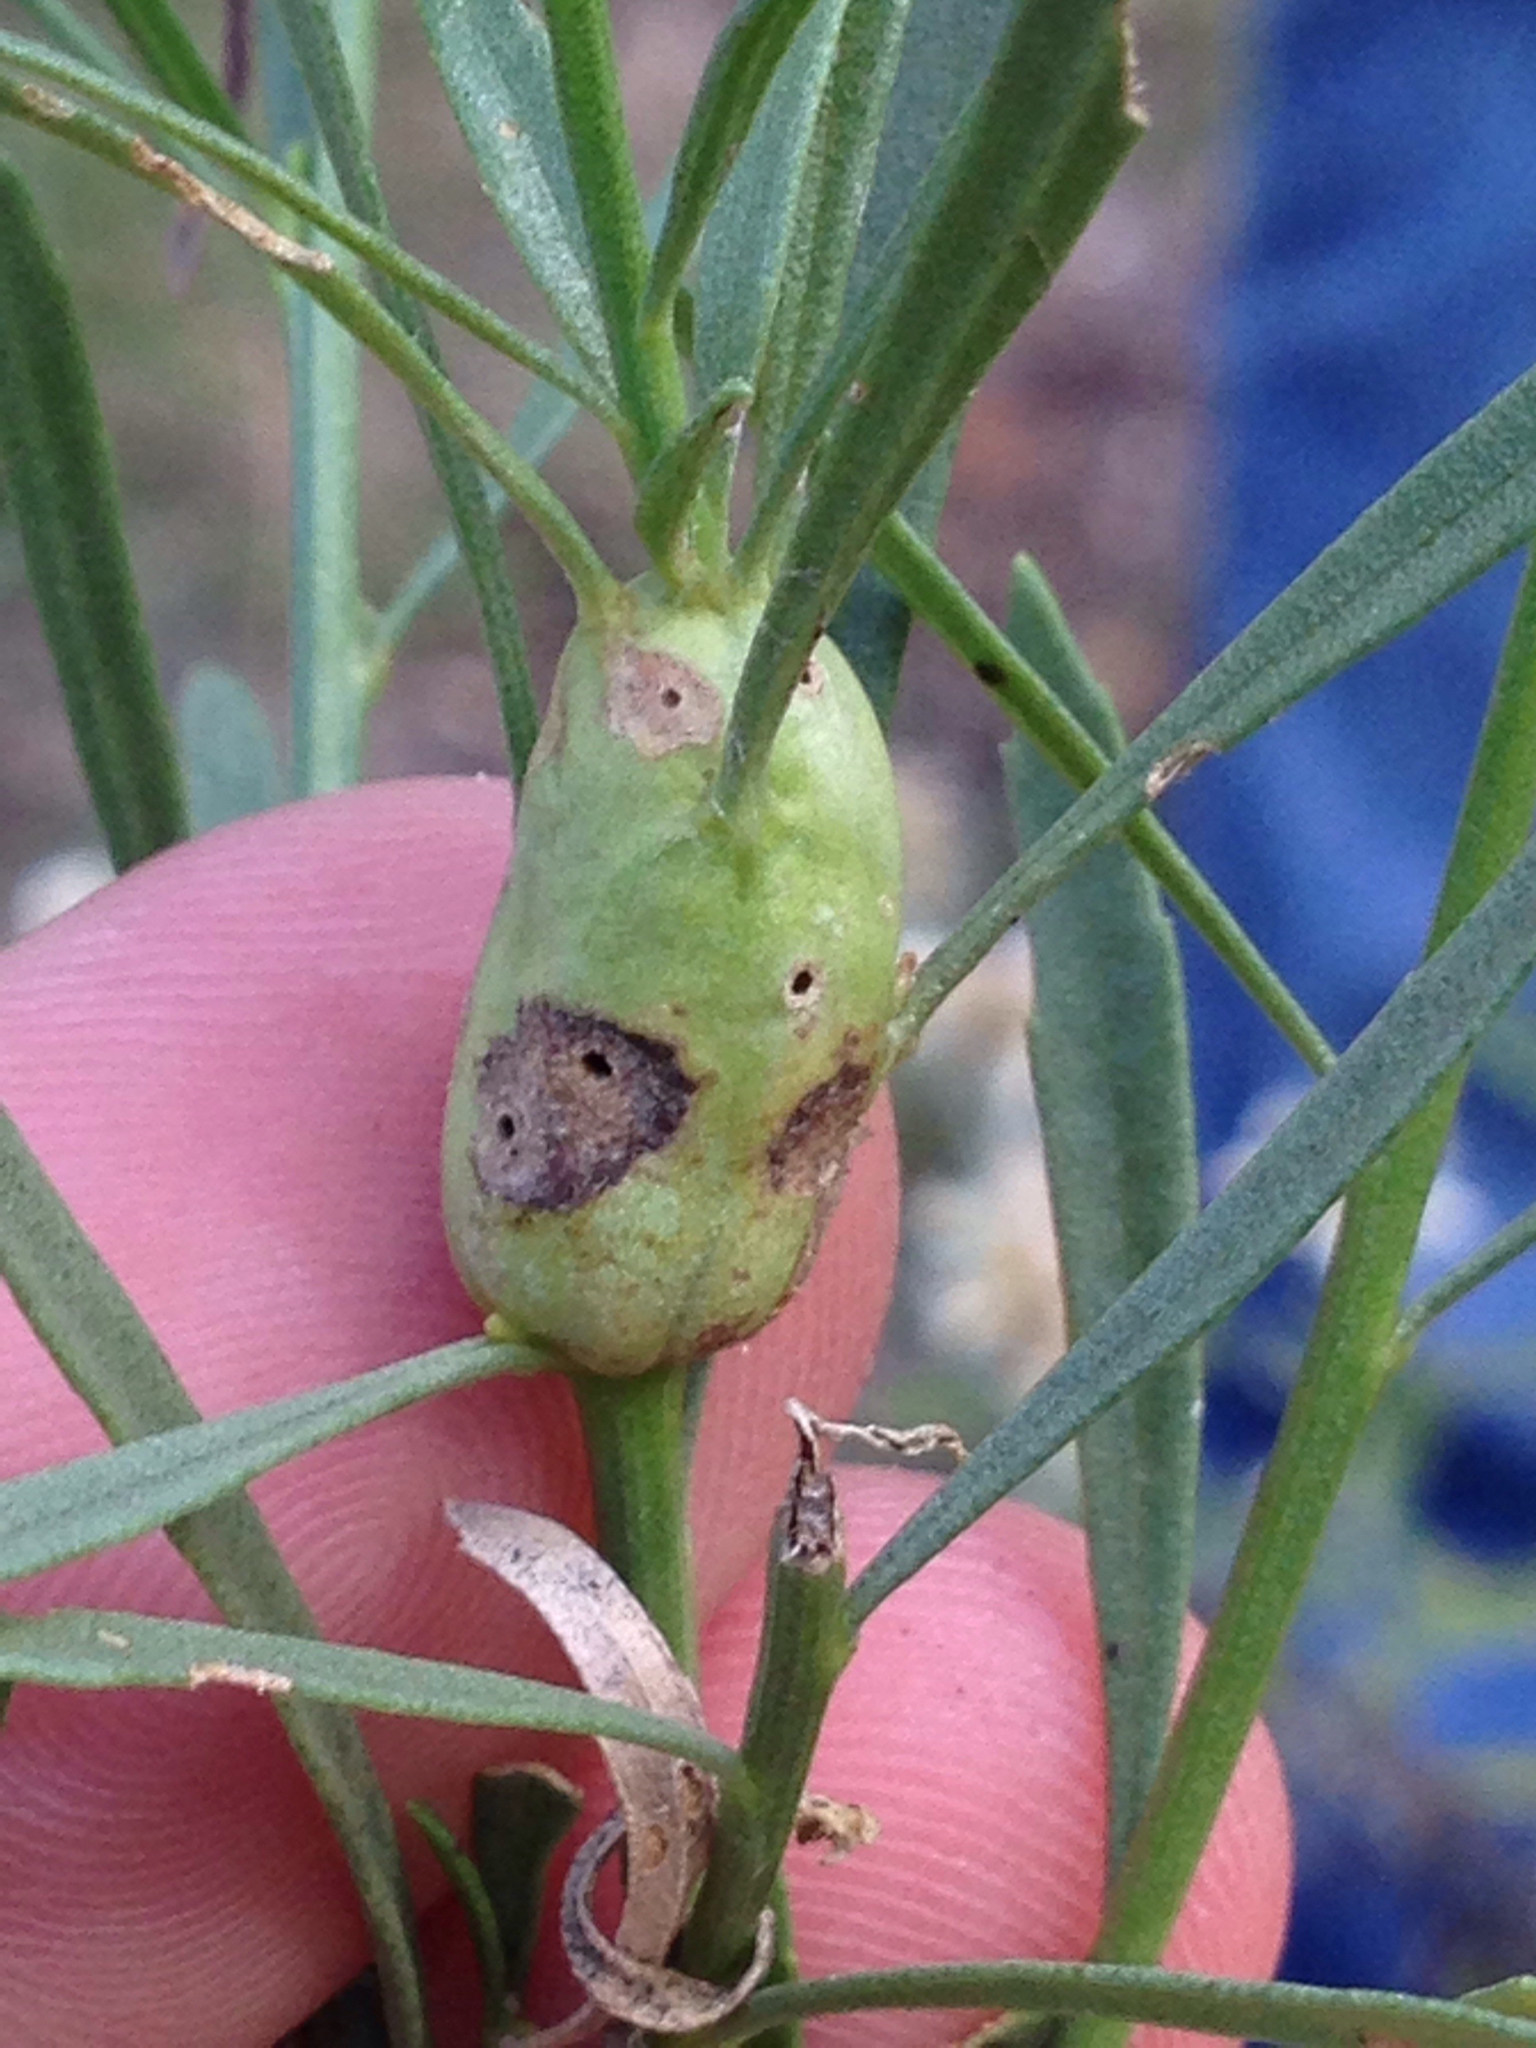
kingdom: Animalia
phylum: Arthropoda
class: Insecta
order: Diptera
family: Cecidomyiidae
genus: Neolasioptera
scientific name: Neolasioptera lathami
